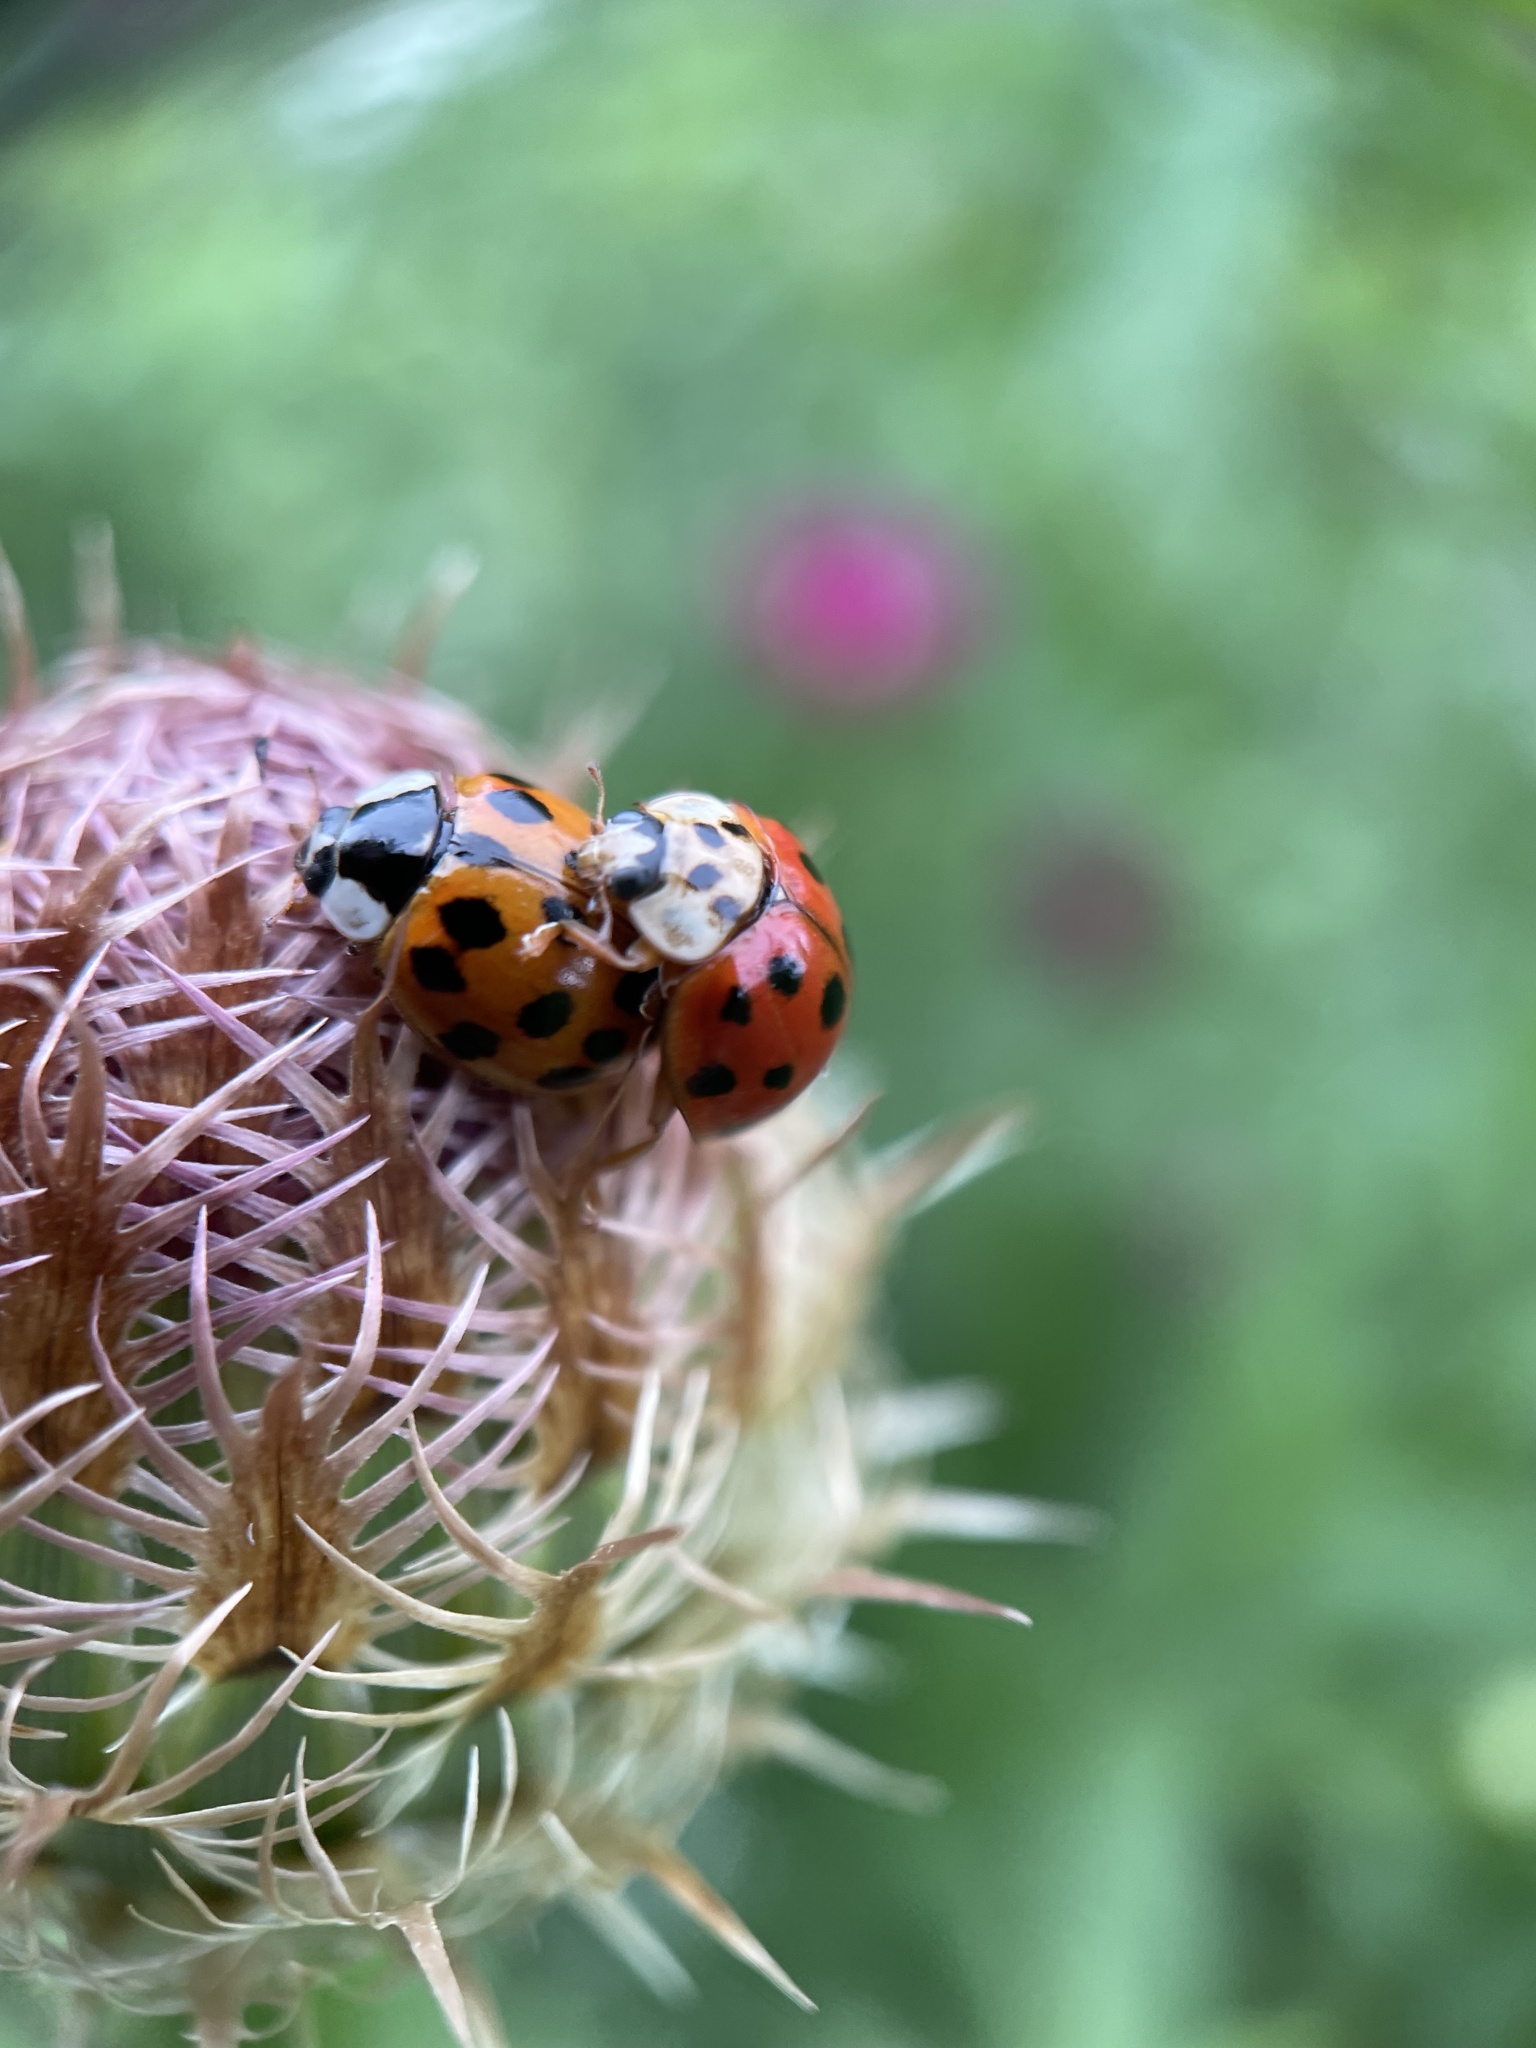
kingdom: Animalia
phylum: Arthropoda
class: Insecta
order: Coleoptera
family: Coccinellidae
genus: Harmonia
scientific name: Harmonia axyridis
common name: Harlequin ladybird
